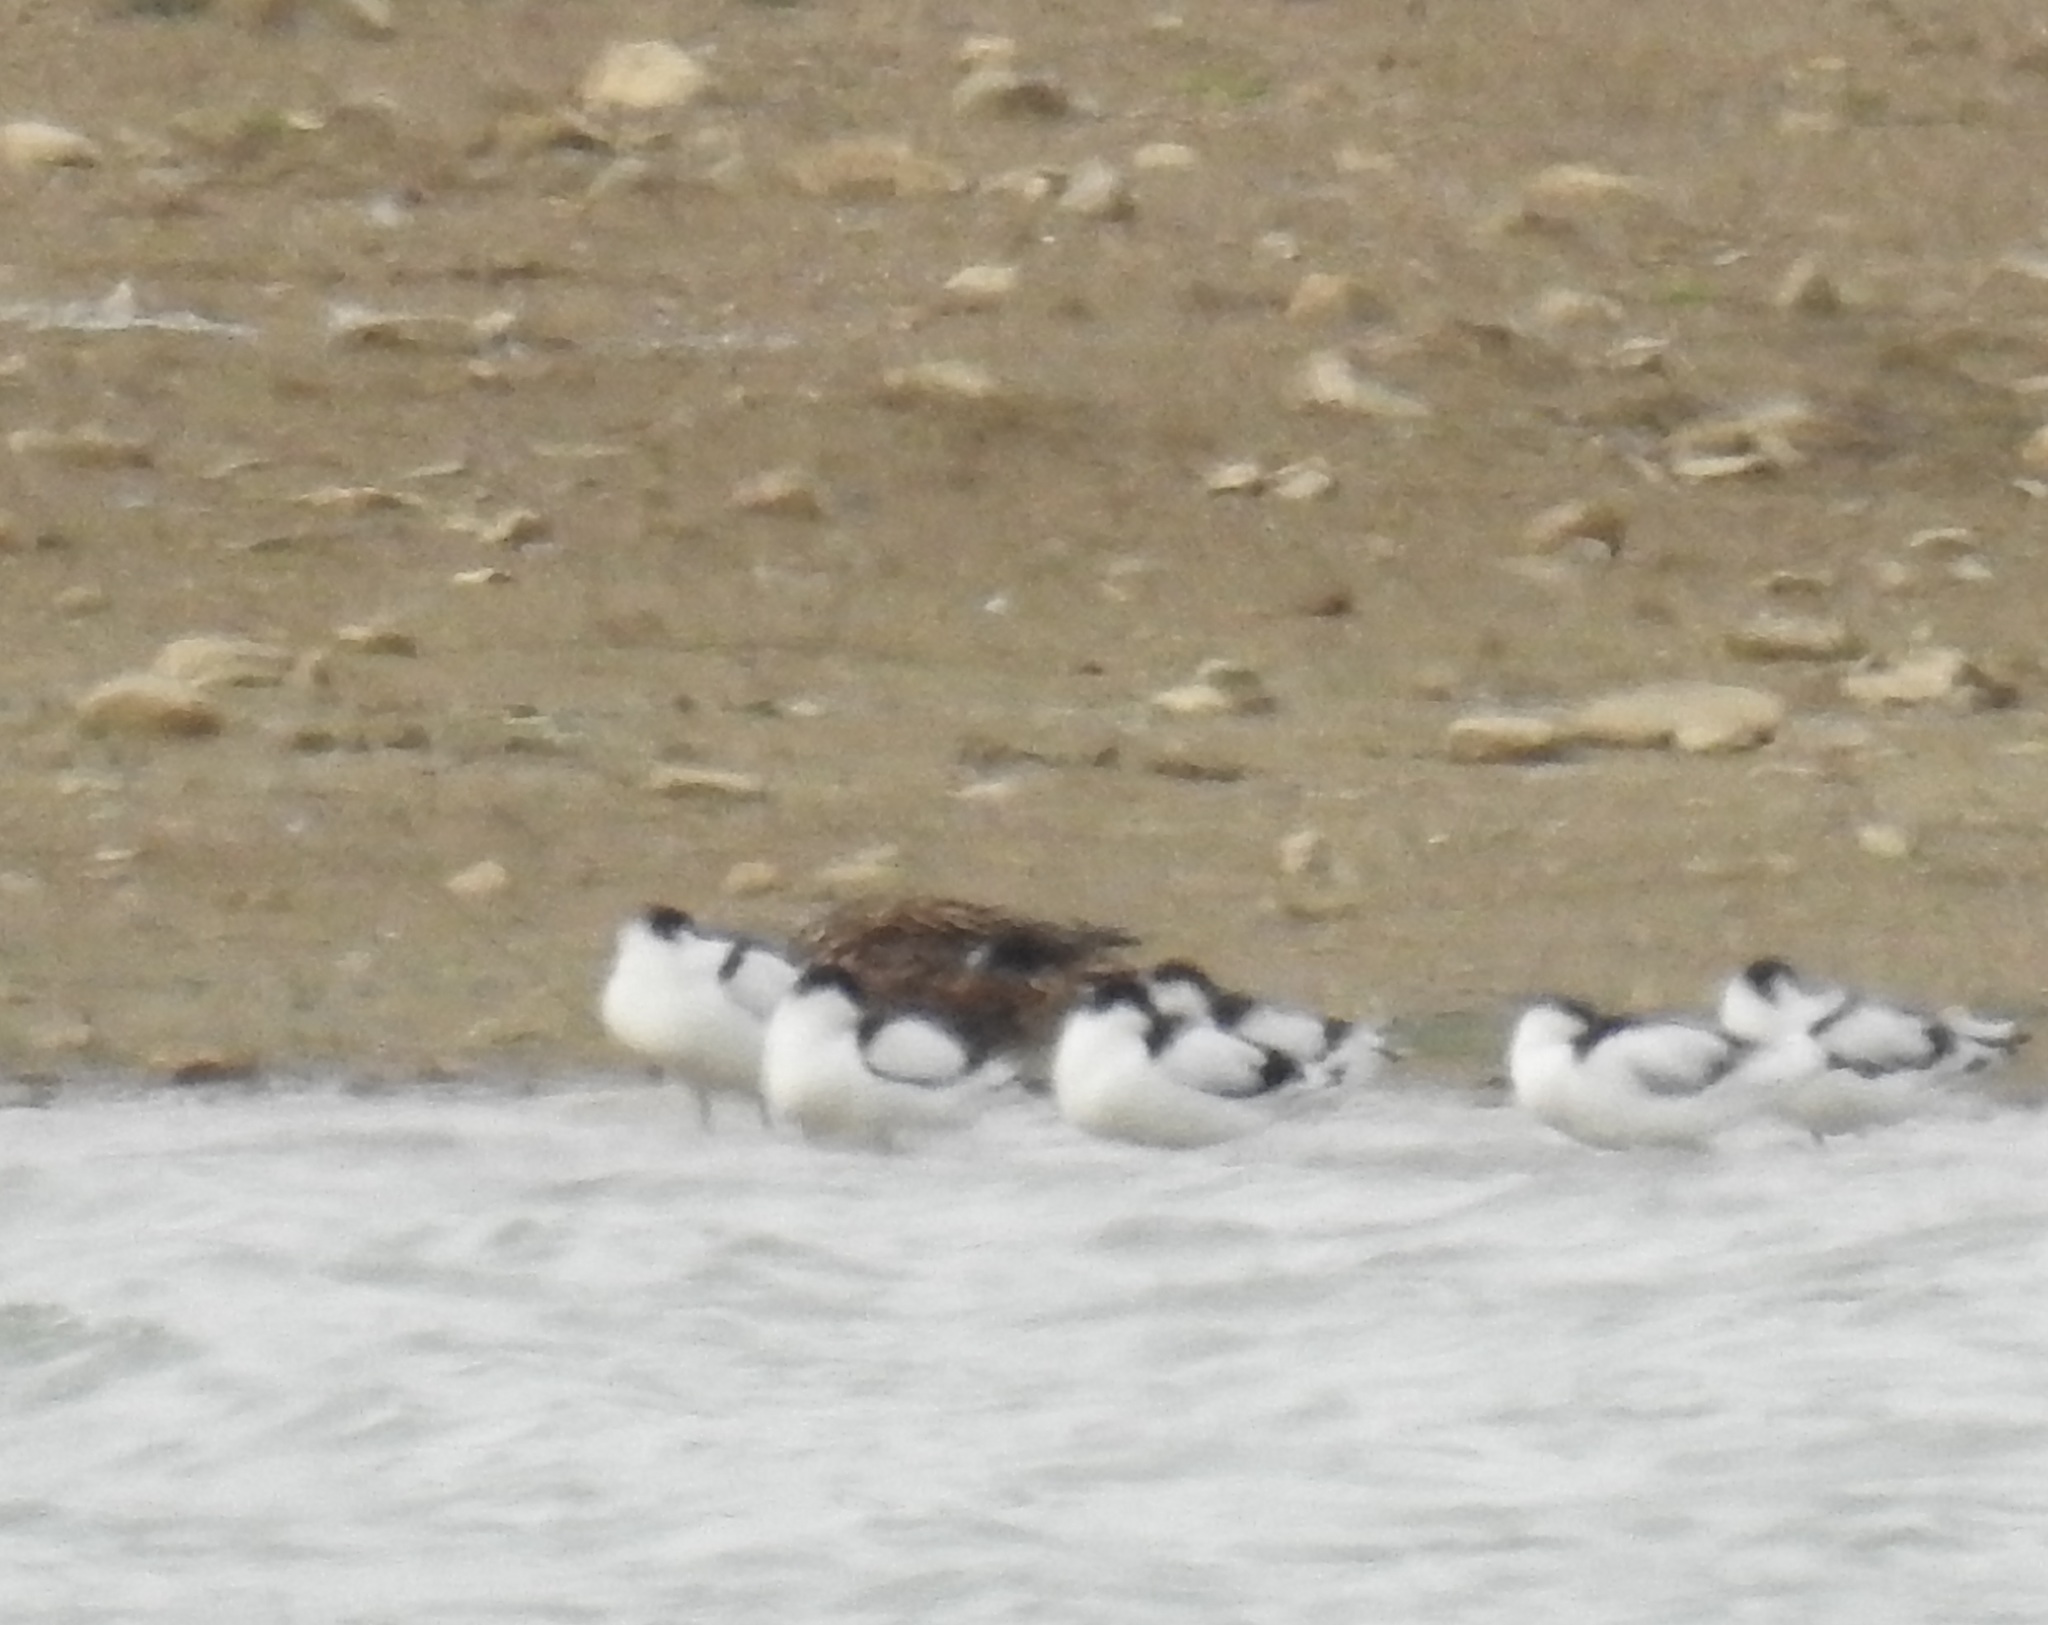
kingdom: Animalia
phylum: Chordata
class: Aves
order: Charadriiformes
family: Recurvirostridae
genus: Recurvirostra
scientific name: Recurvirostra avosetta
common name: Pied avocet
